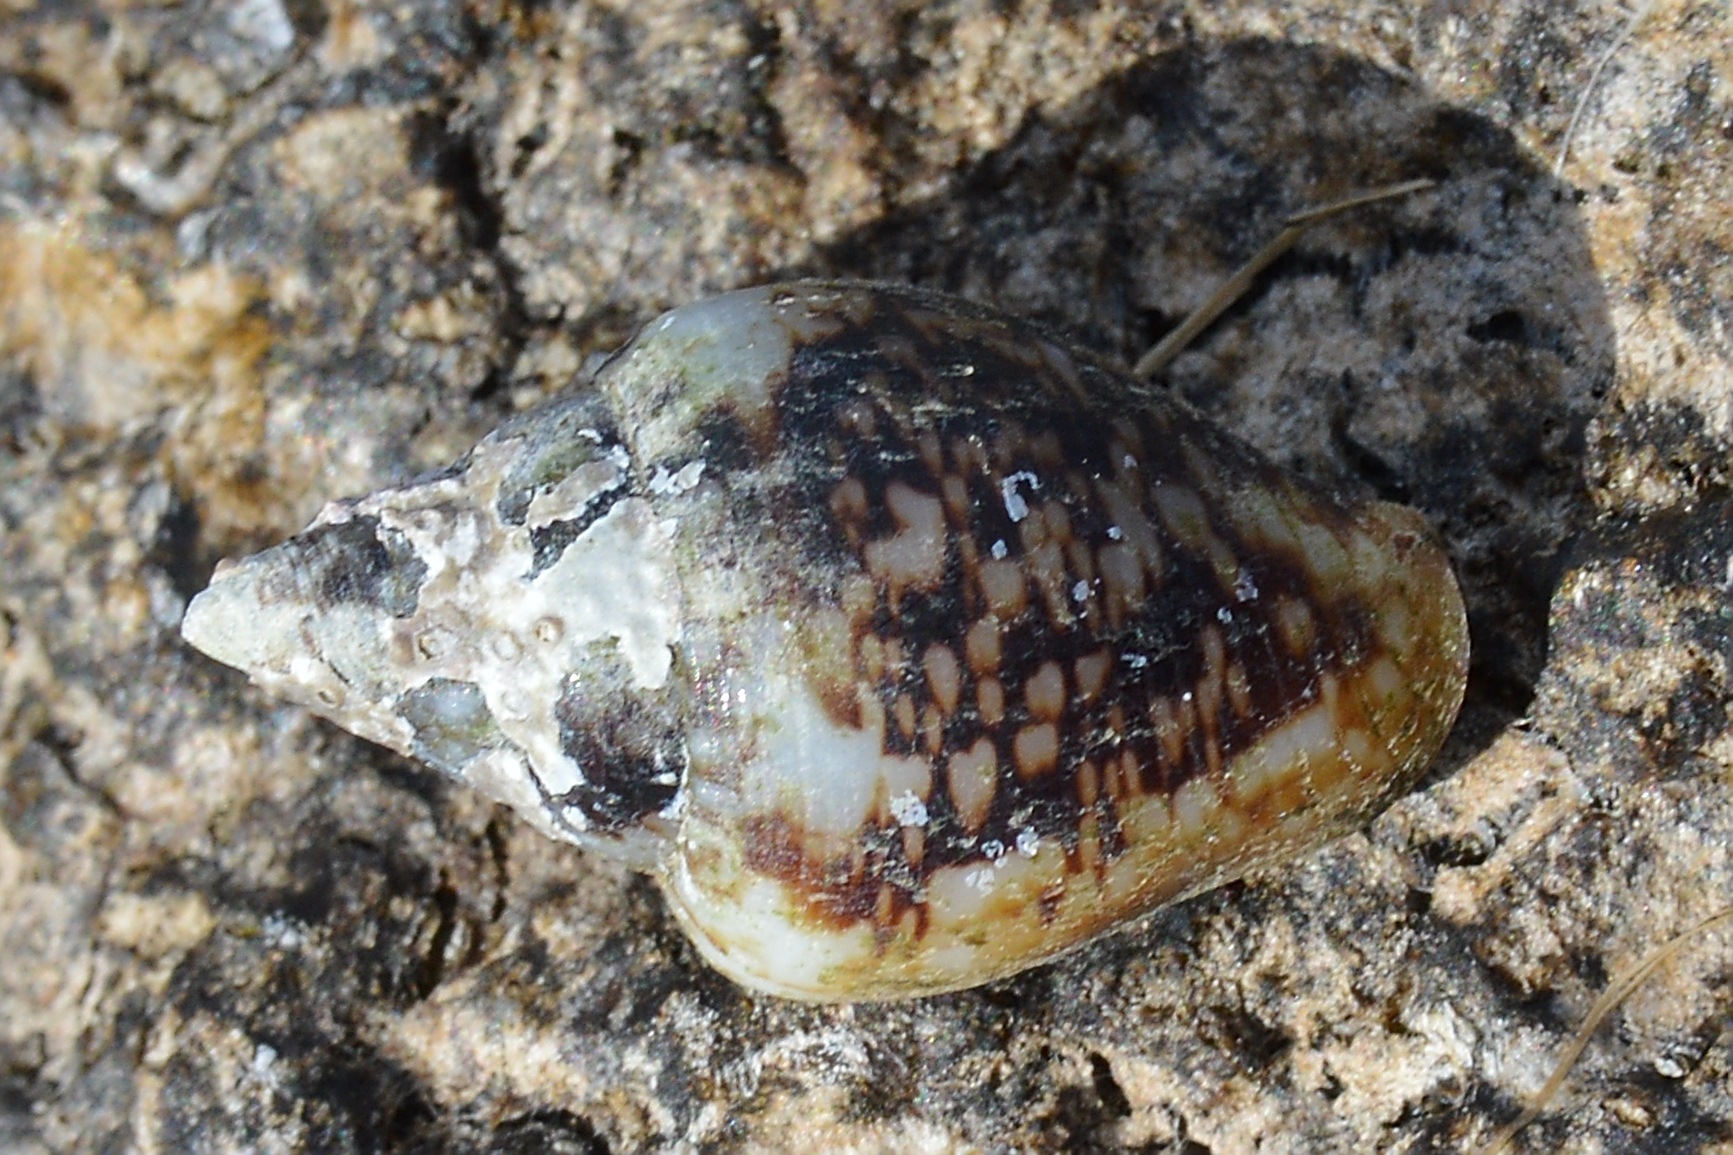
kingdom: Animalia
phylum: Mollusca
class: Gastropoda
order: Neogastropoda
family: Columbellidae
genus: Columbella
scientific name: Columbella rustica
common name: Rustic dove shell
